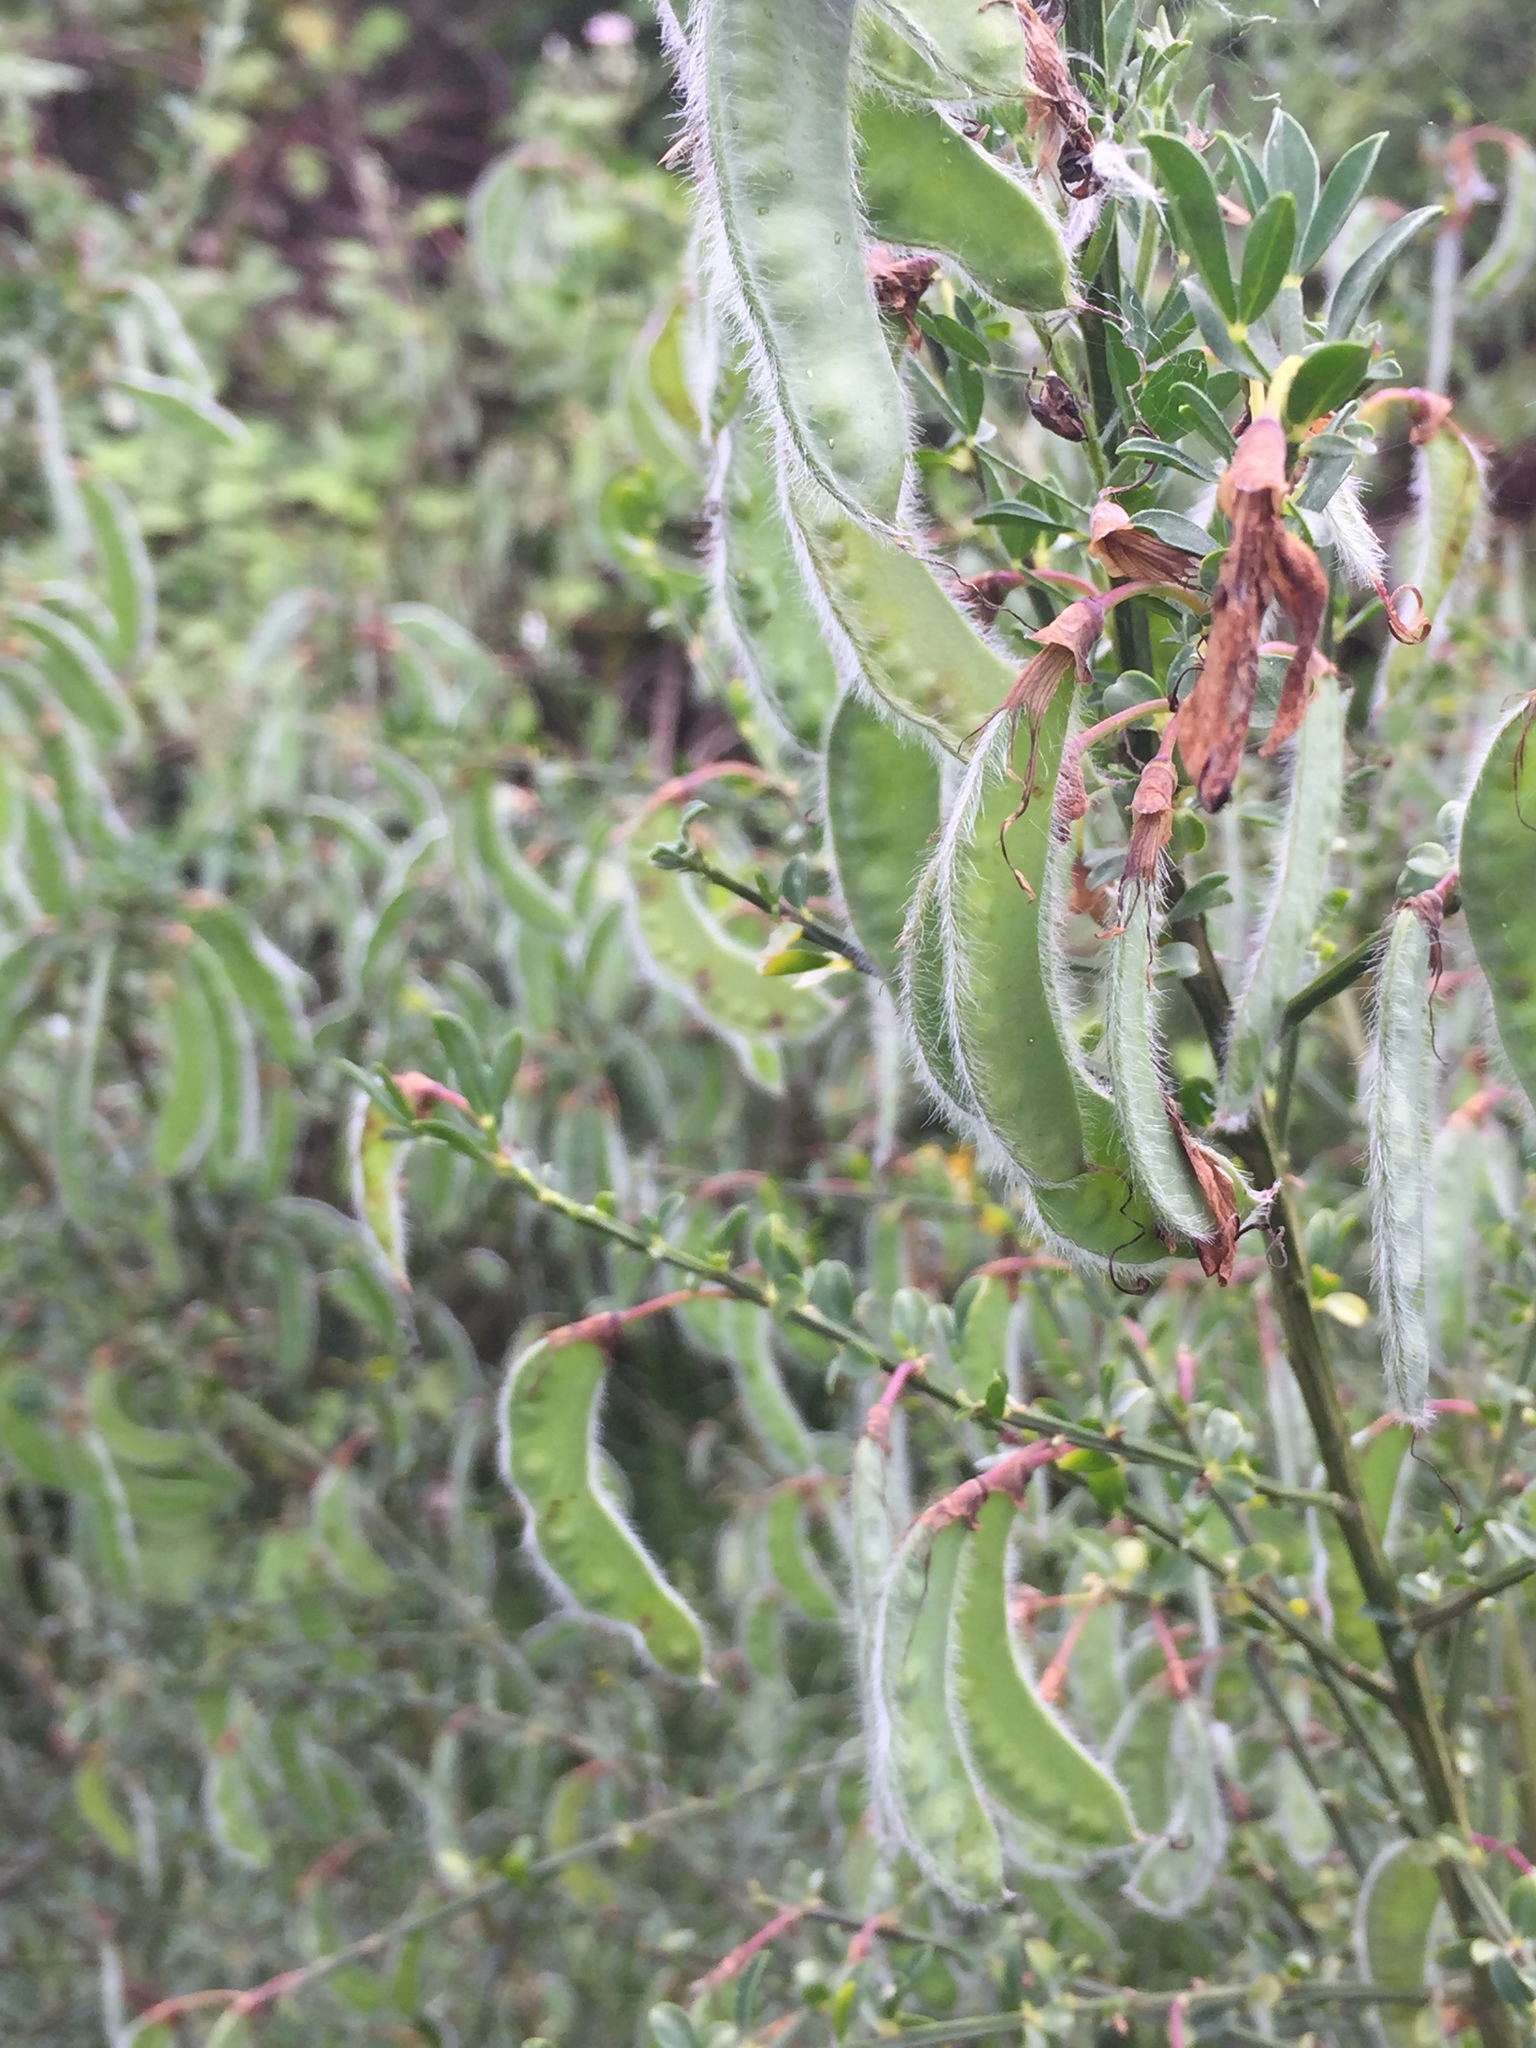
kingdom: Plantae
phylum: Tracheophyta
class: Magnoliopsida
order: Fabales
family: Fabaceae
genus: Cytisus
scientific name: Cytisus scoparius
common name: Scotch broom
